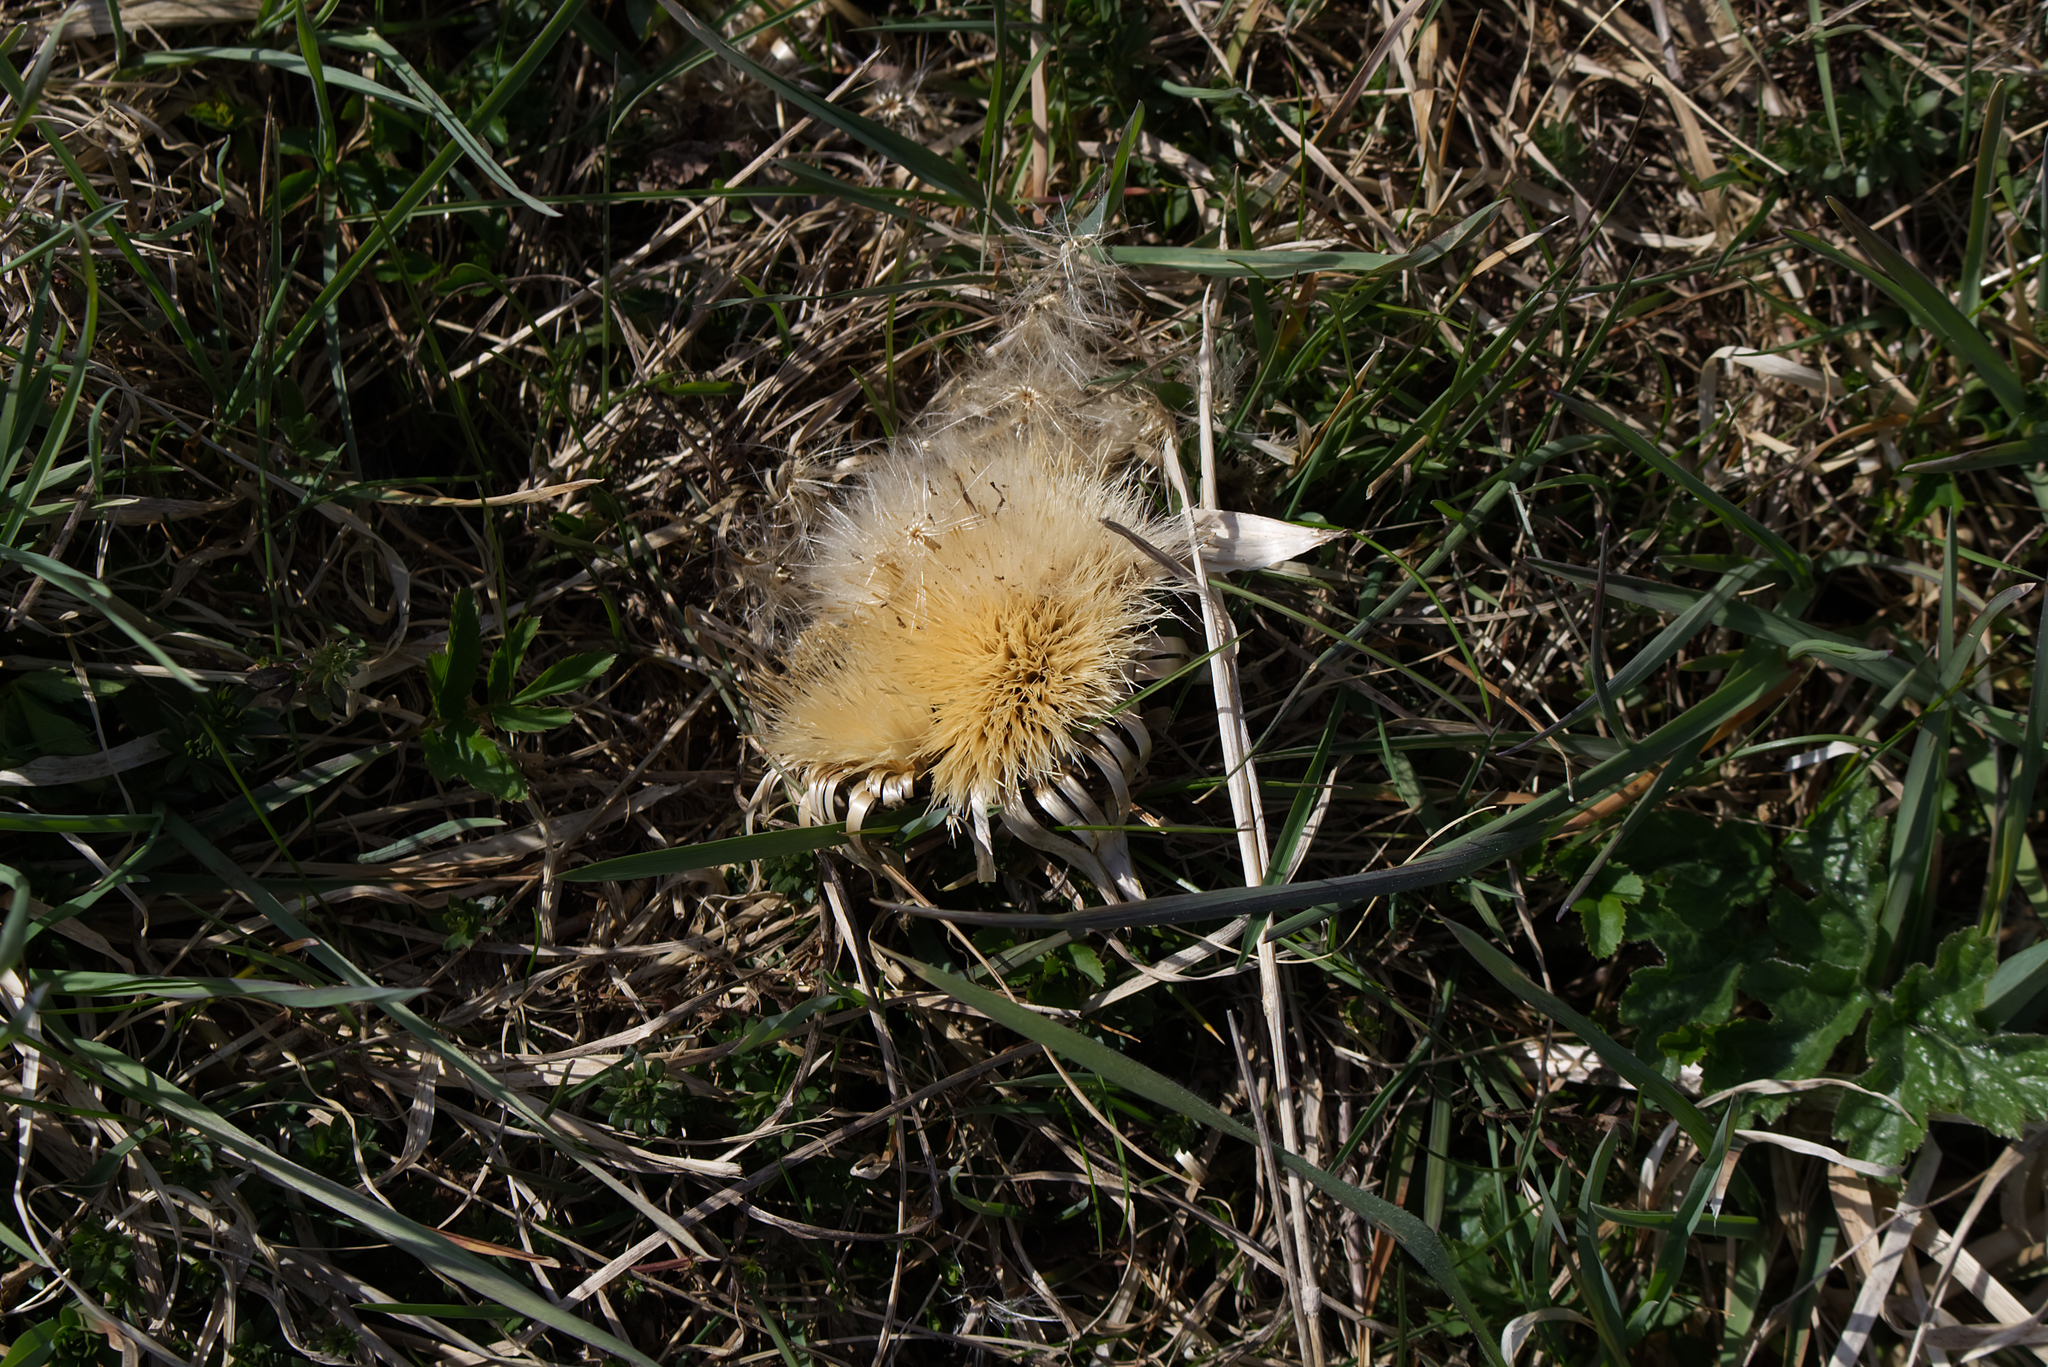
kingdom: Plantae
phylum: Tracheophyta
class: Magnoliopsida
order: Asterales
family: Asteraceae
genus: Carlina
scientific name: Carlina acaulis
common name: Stemless carline thistle
